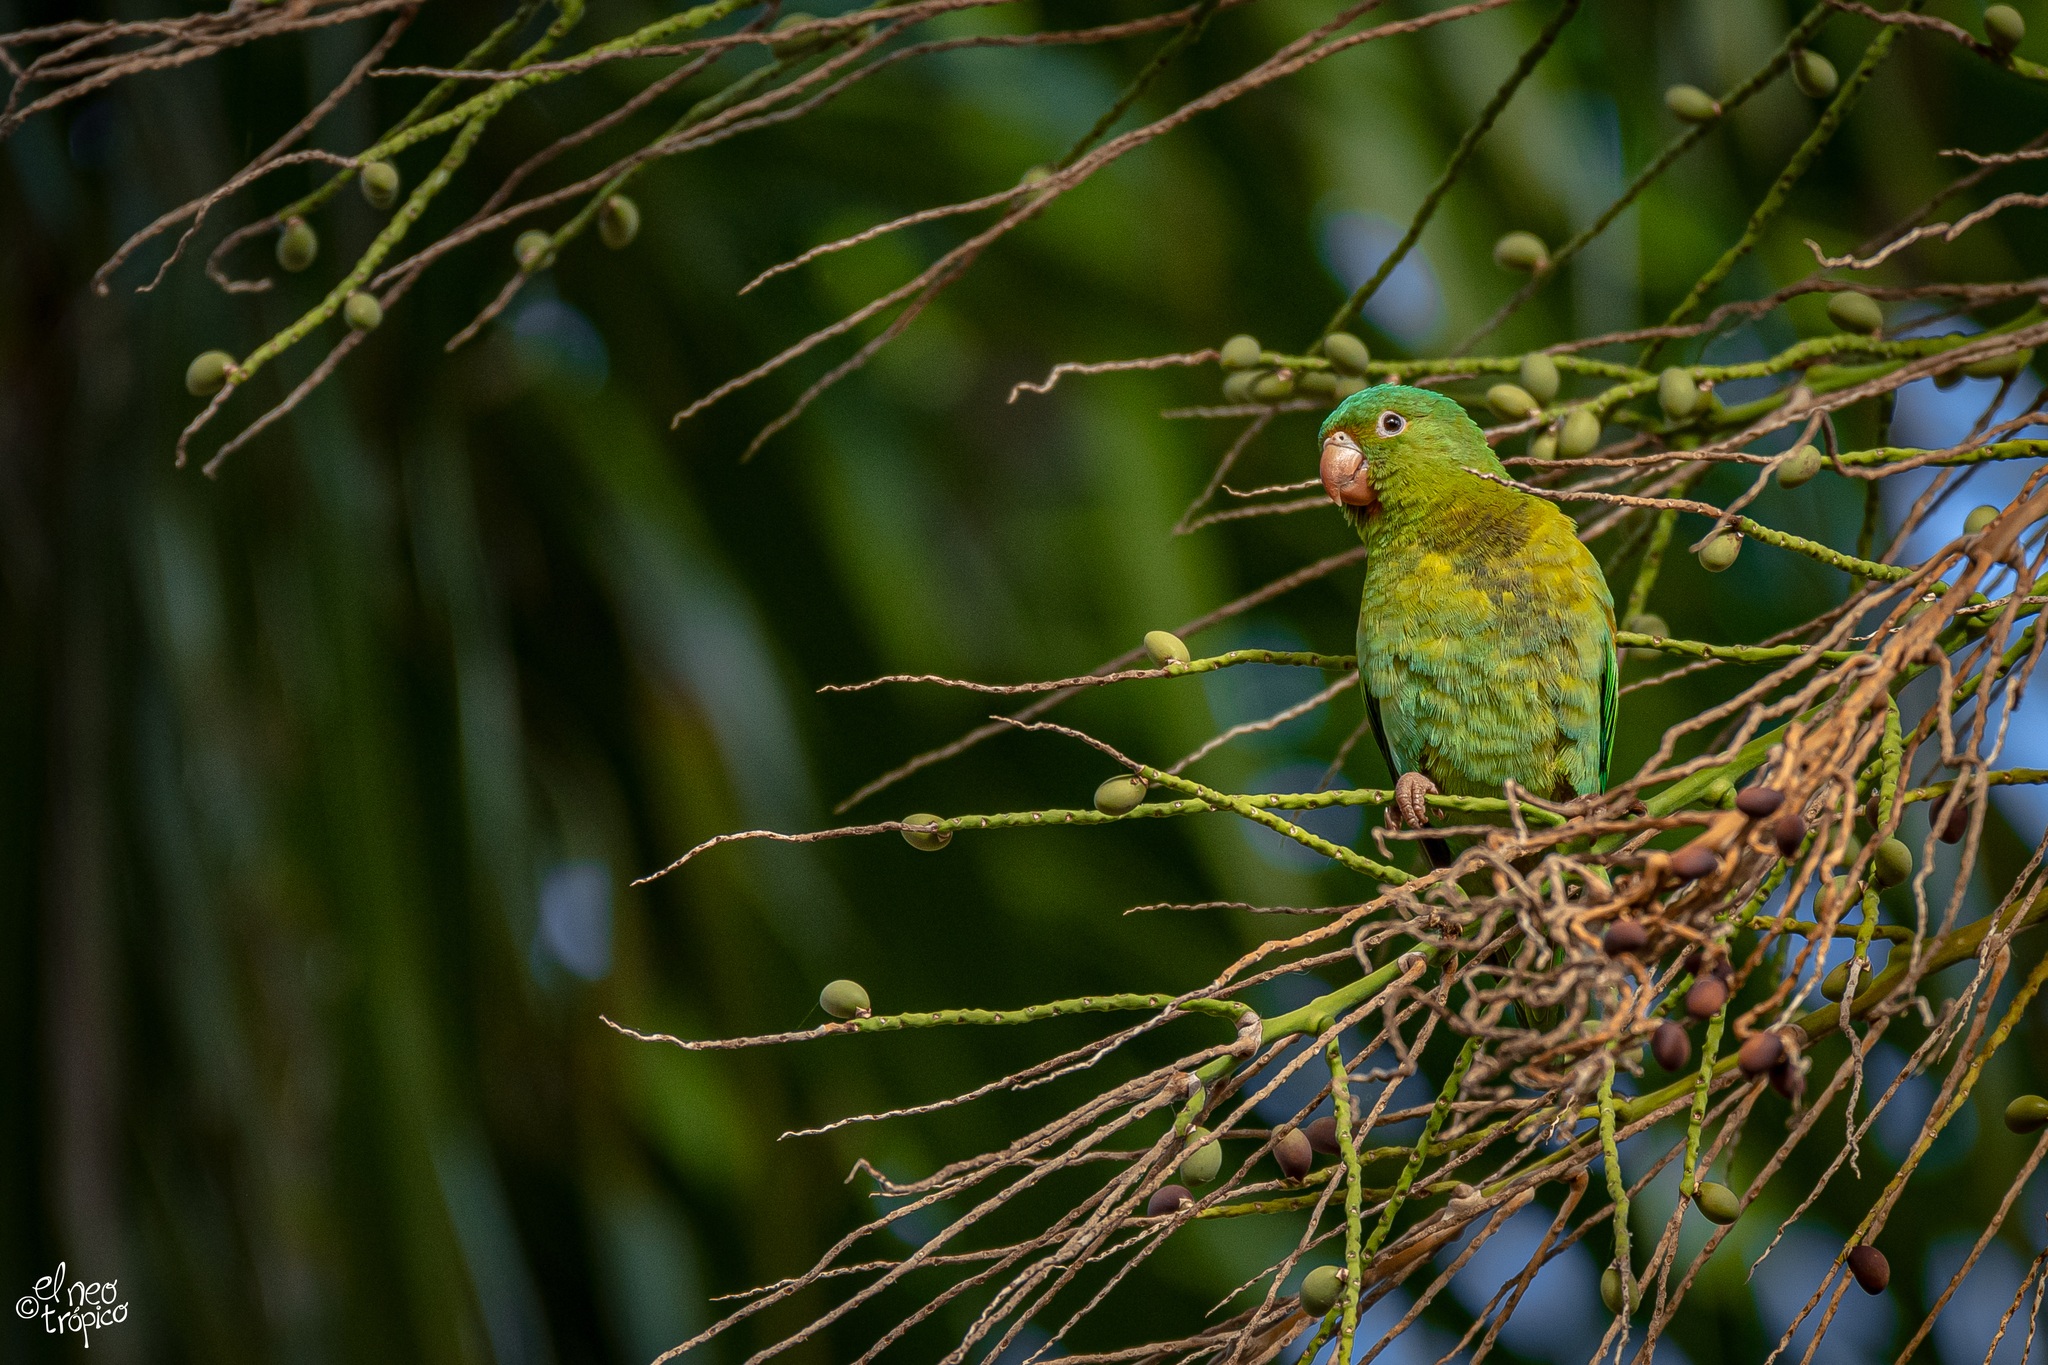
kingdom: Animalia
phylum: Chordata
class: Aves
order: Psittaciformes
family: Psittacidae
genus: Brotogeris
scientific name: Brotogeris jugularis
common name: Orange-chinned parakeet
